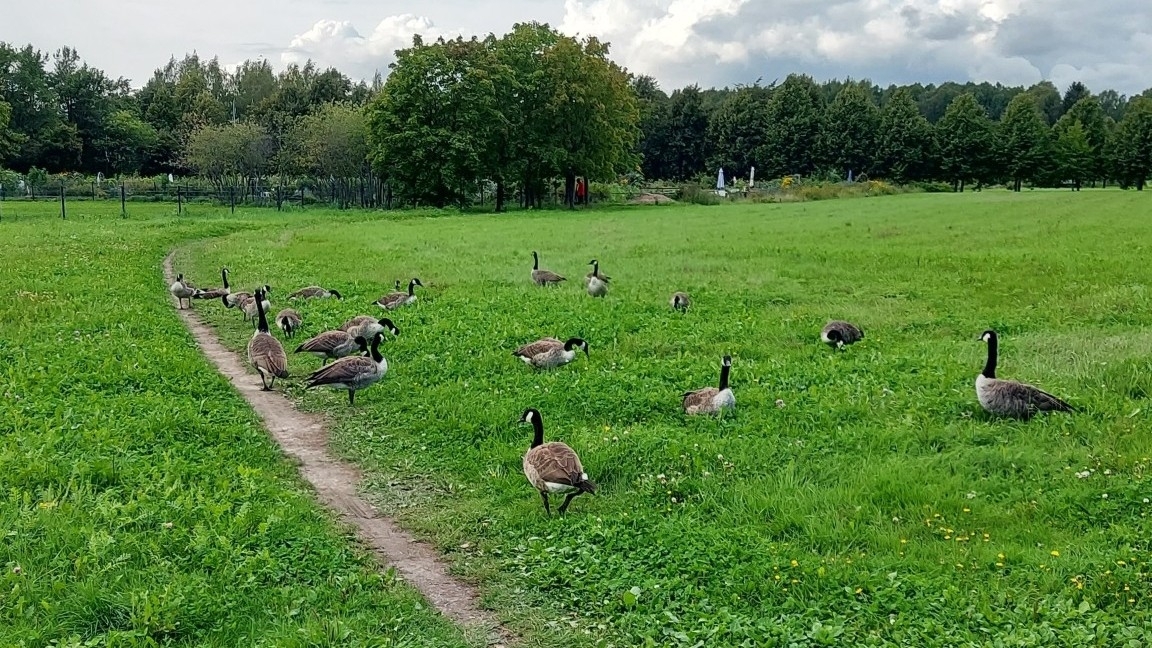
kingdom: Animalia
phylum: Chordata
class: Aves
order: Anseriformes
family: Anatidae
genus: Branta
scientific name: Branta canadensis
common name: Canada goose
